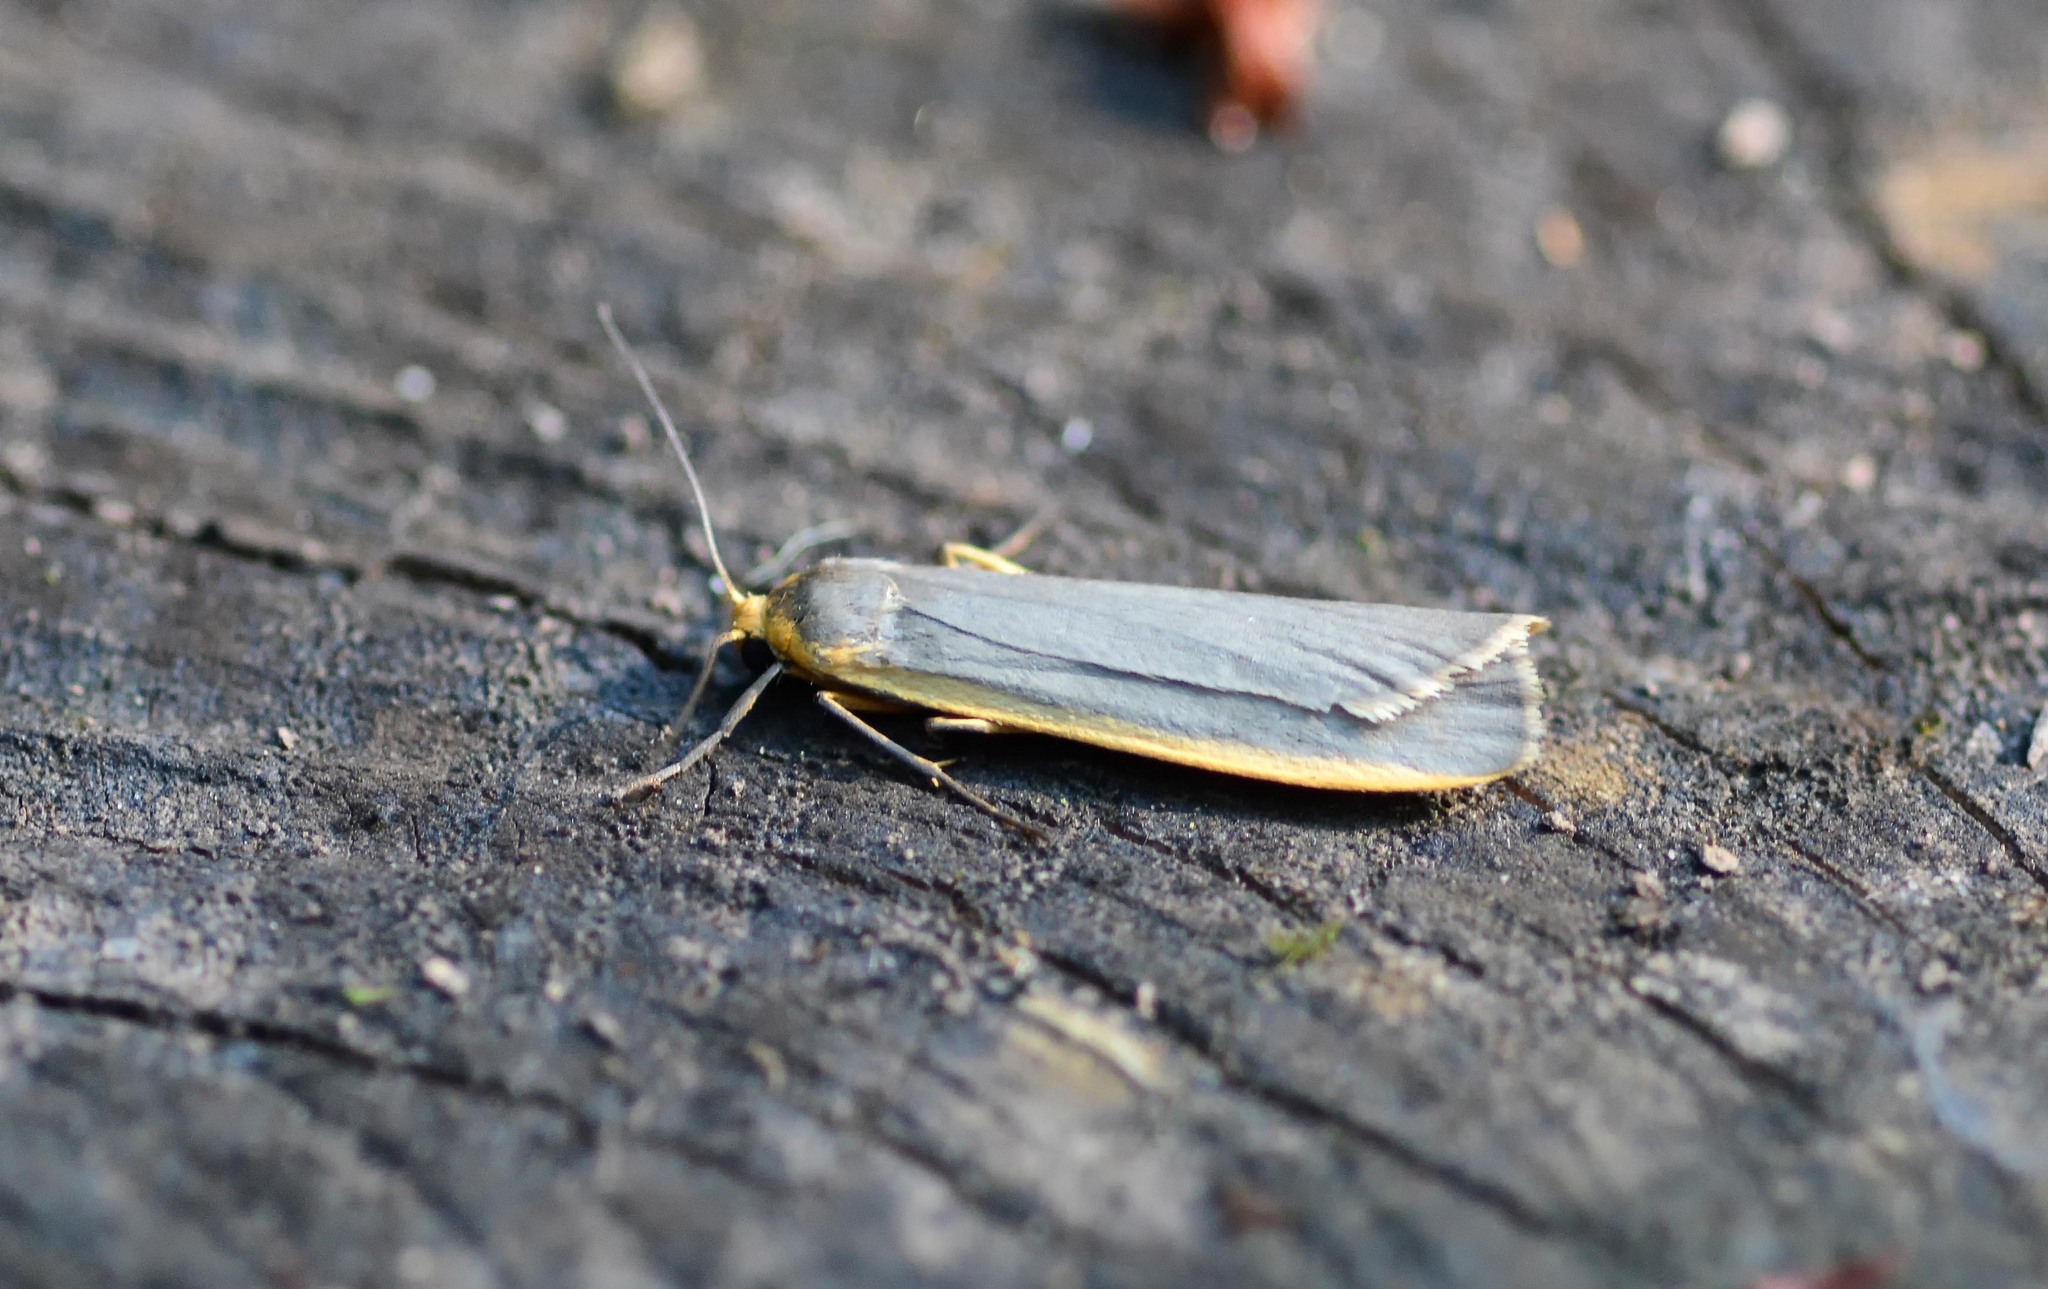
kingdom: Animalia
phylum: Arthropoda
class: Insecta
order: Lepidoptera
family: Erebidae
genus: Nyea
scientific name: Nyea lurideola
